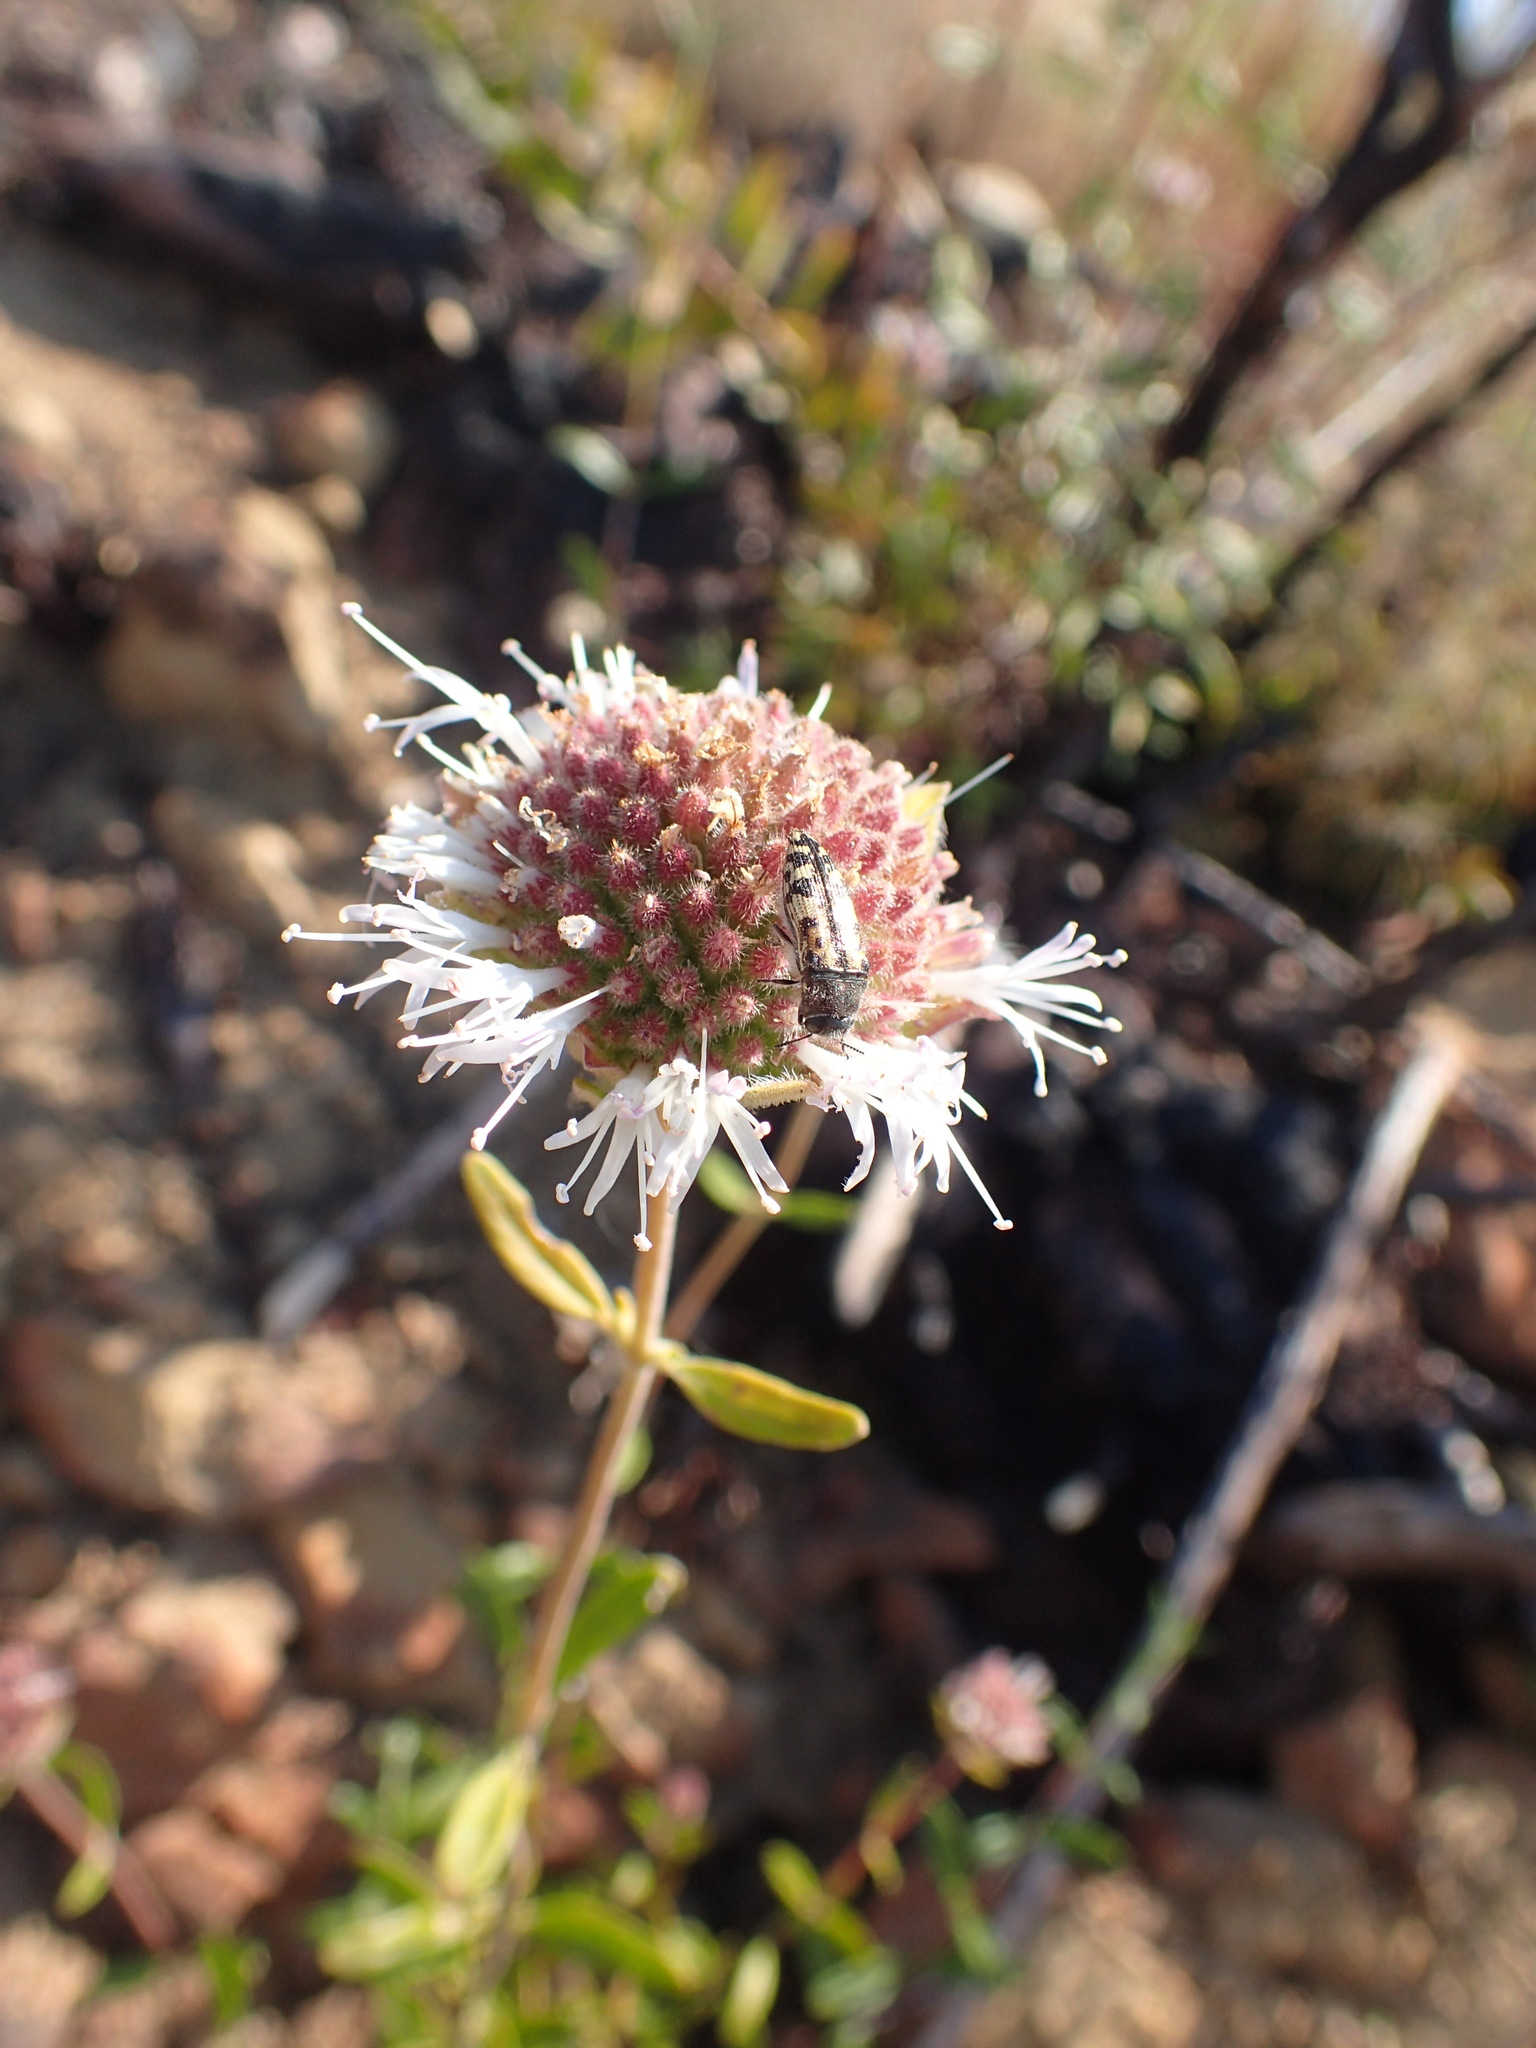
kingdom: Plantae
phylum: Tracheophyta
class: Magnoliopsida
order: Lamiales
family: Lamiaceae
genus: Monardella
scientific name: Monardella hypoleuca
